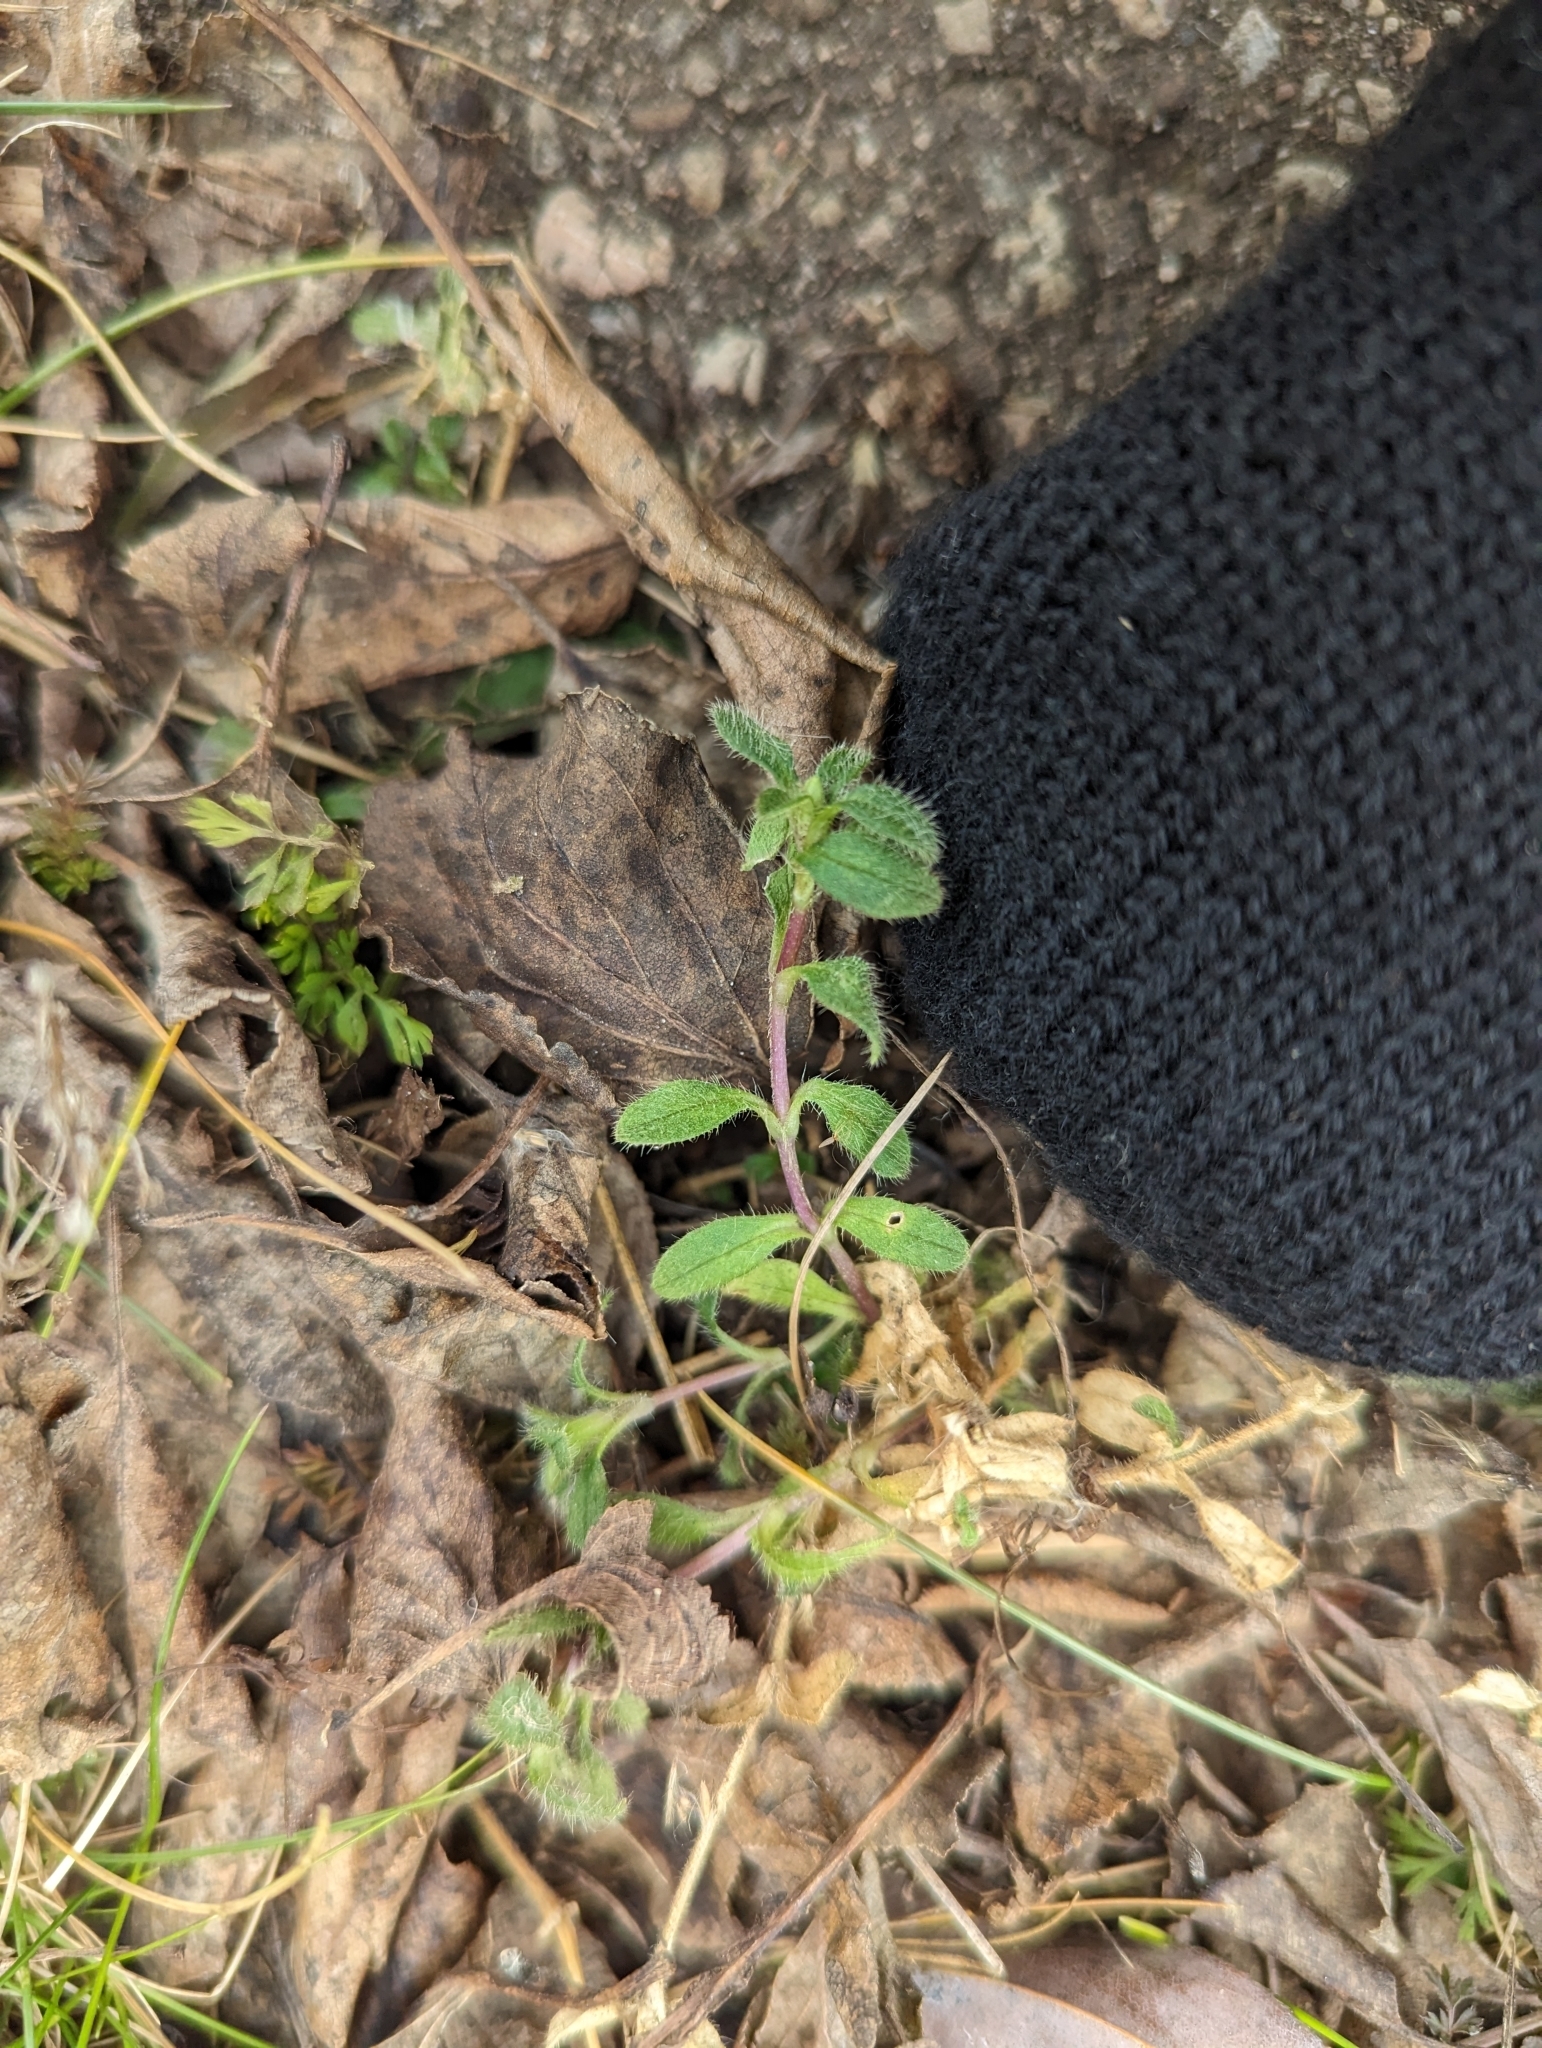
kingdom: Plantae
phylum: Tracheophyta
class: Magnoliopsida
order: Caryophyllales
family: Caryophyllaceae
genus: Cerastium
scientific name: Cerastium fontanum
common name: Common mouse-ear
